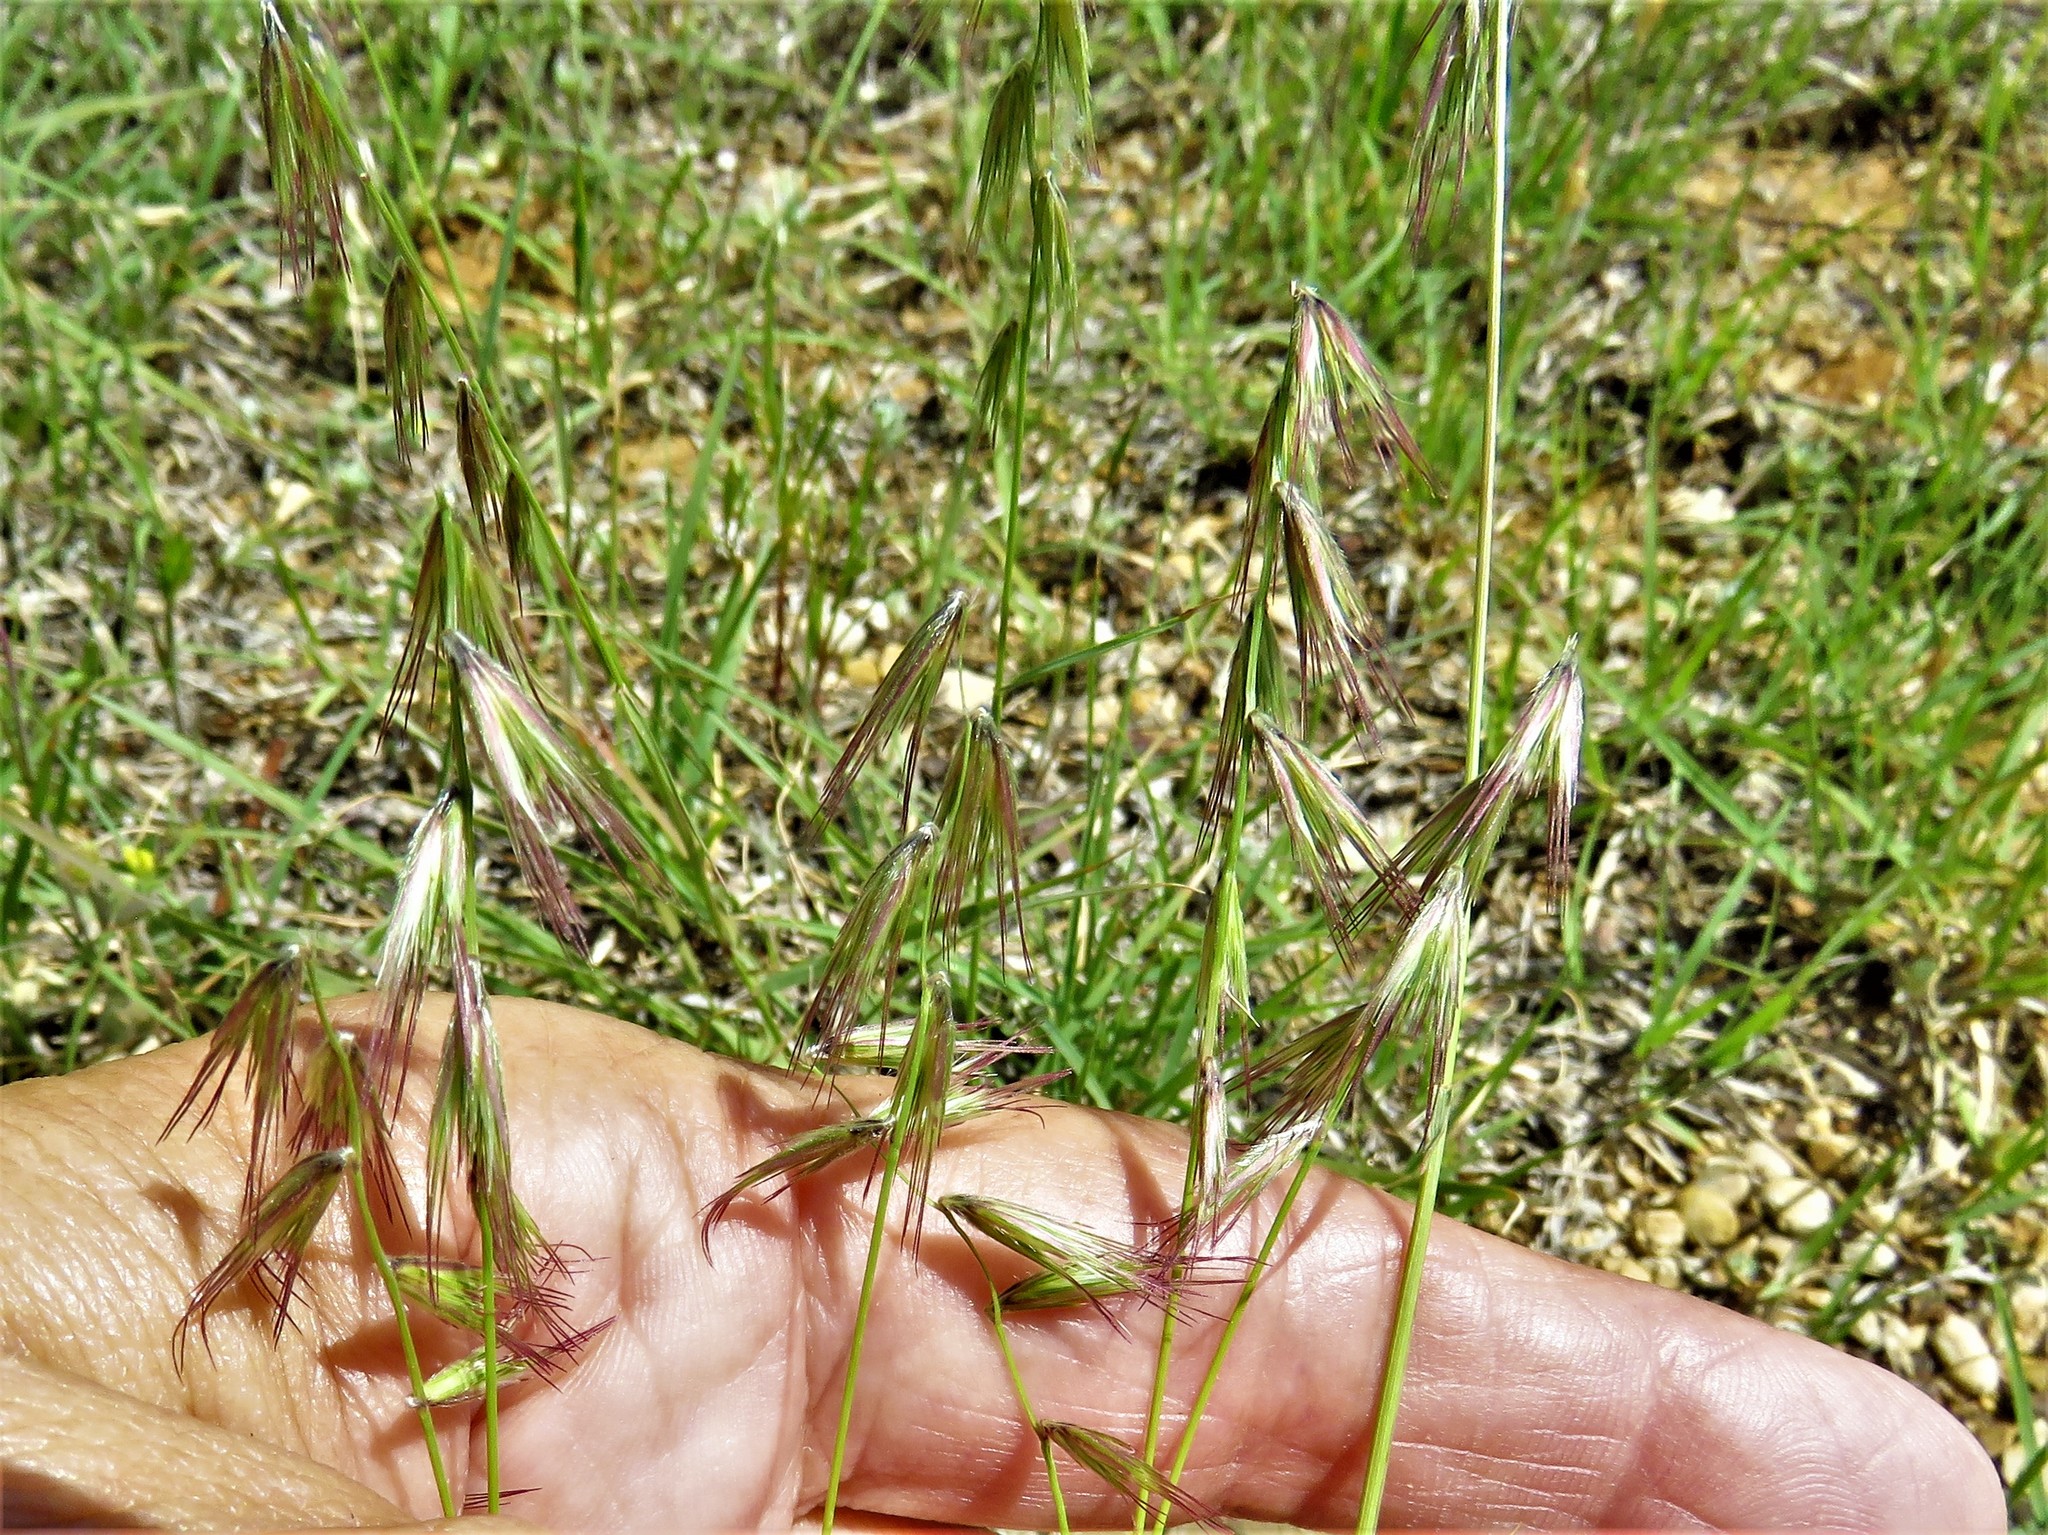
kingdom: Plantae
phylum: Tracheophyta
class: Liliopsida
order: Poales
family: Poaceae
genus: Bouteloua
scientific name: Bouteloua rigidiseta
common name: Texas grama
